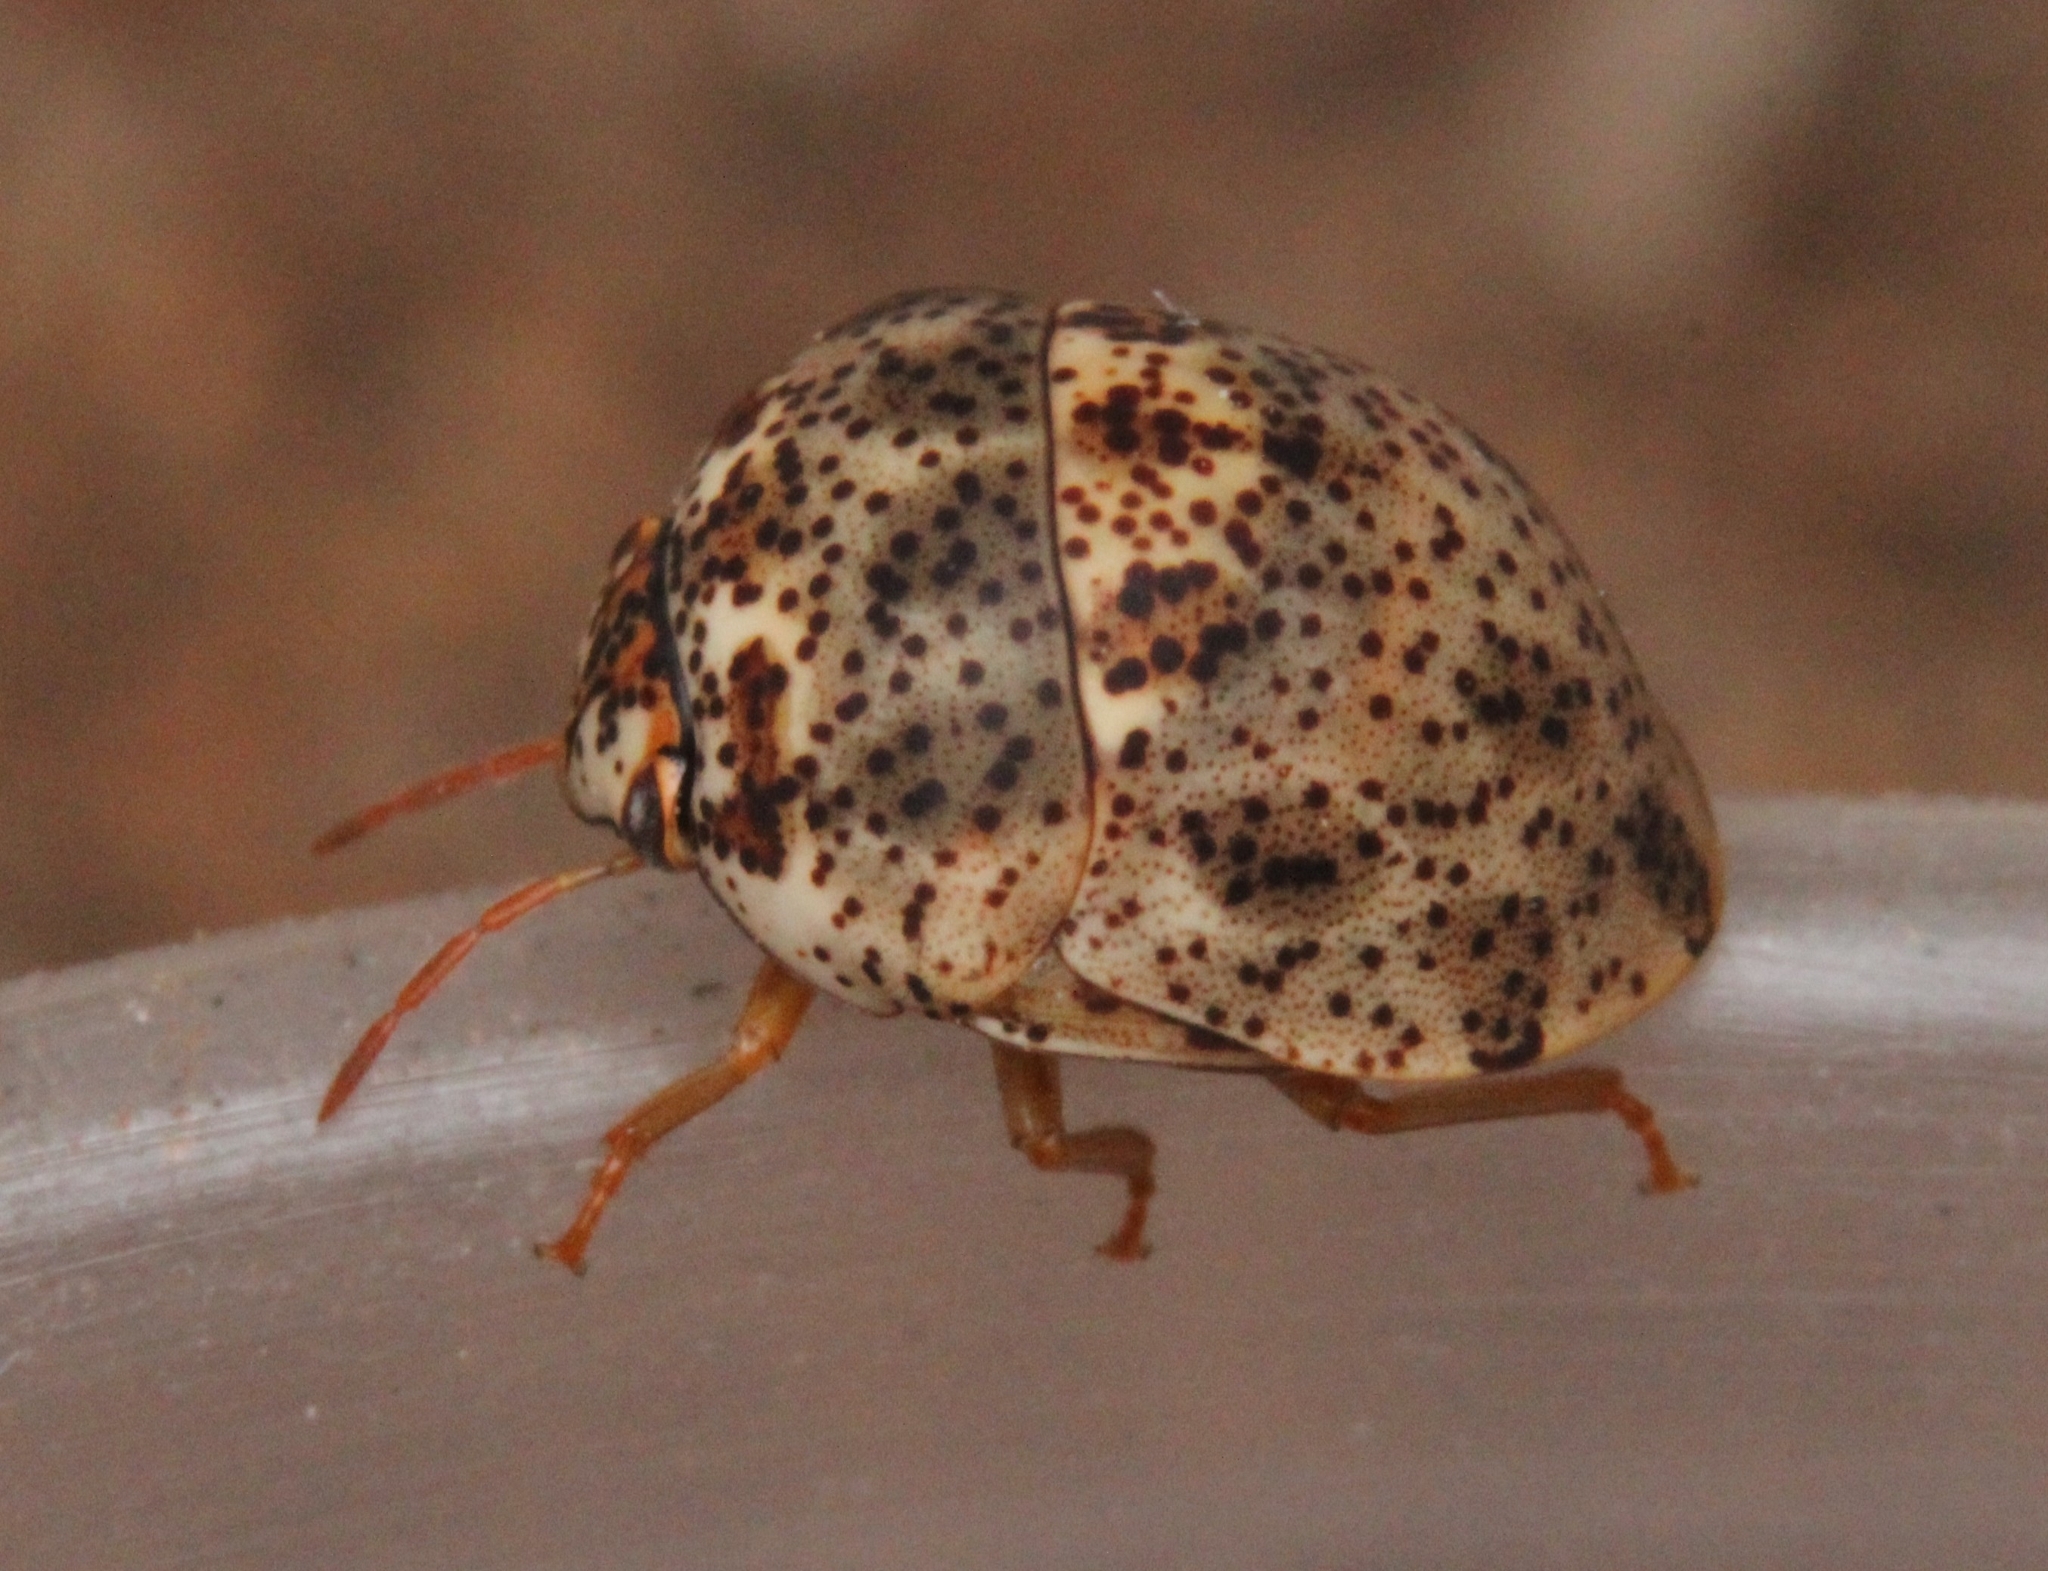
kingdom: Animalia
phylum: Arthropoda
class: Insecta
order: Hemiptera
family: Scutelleridae
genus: Sphaerocoris
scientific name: Sphaerocoris
